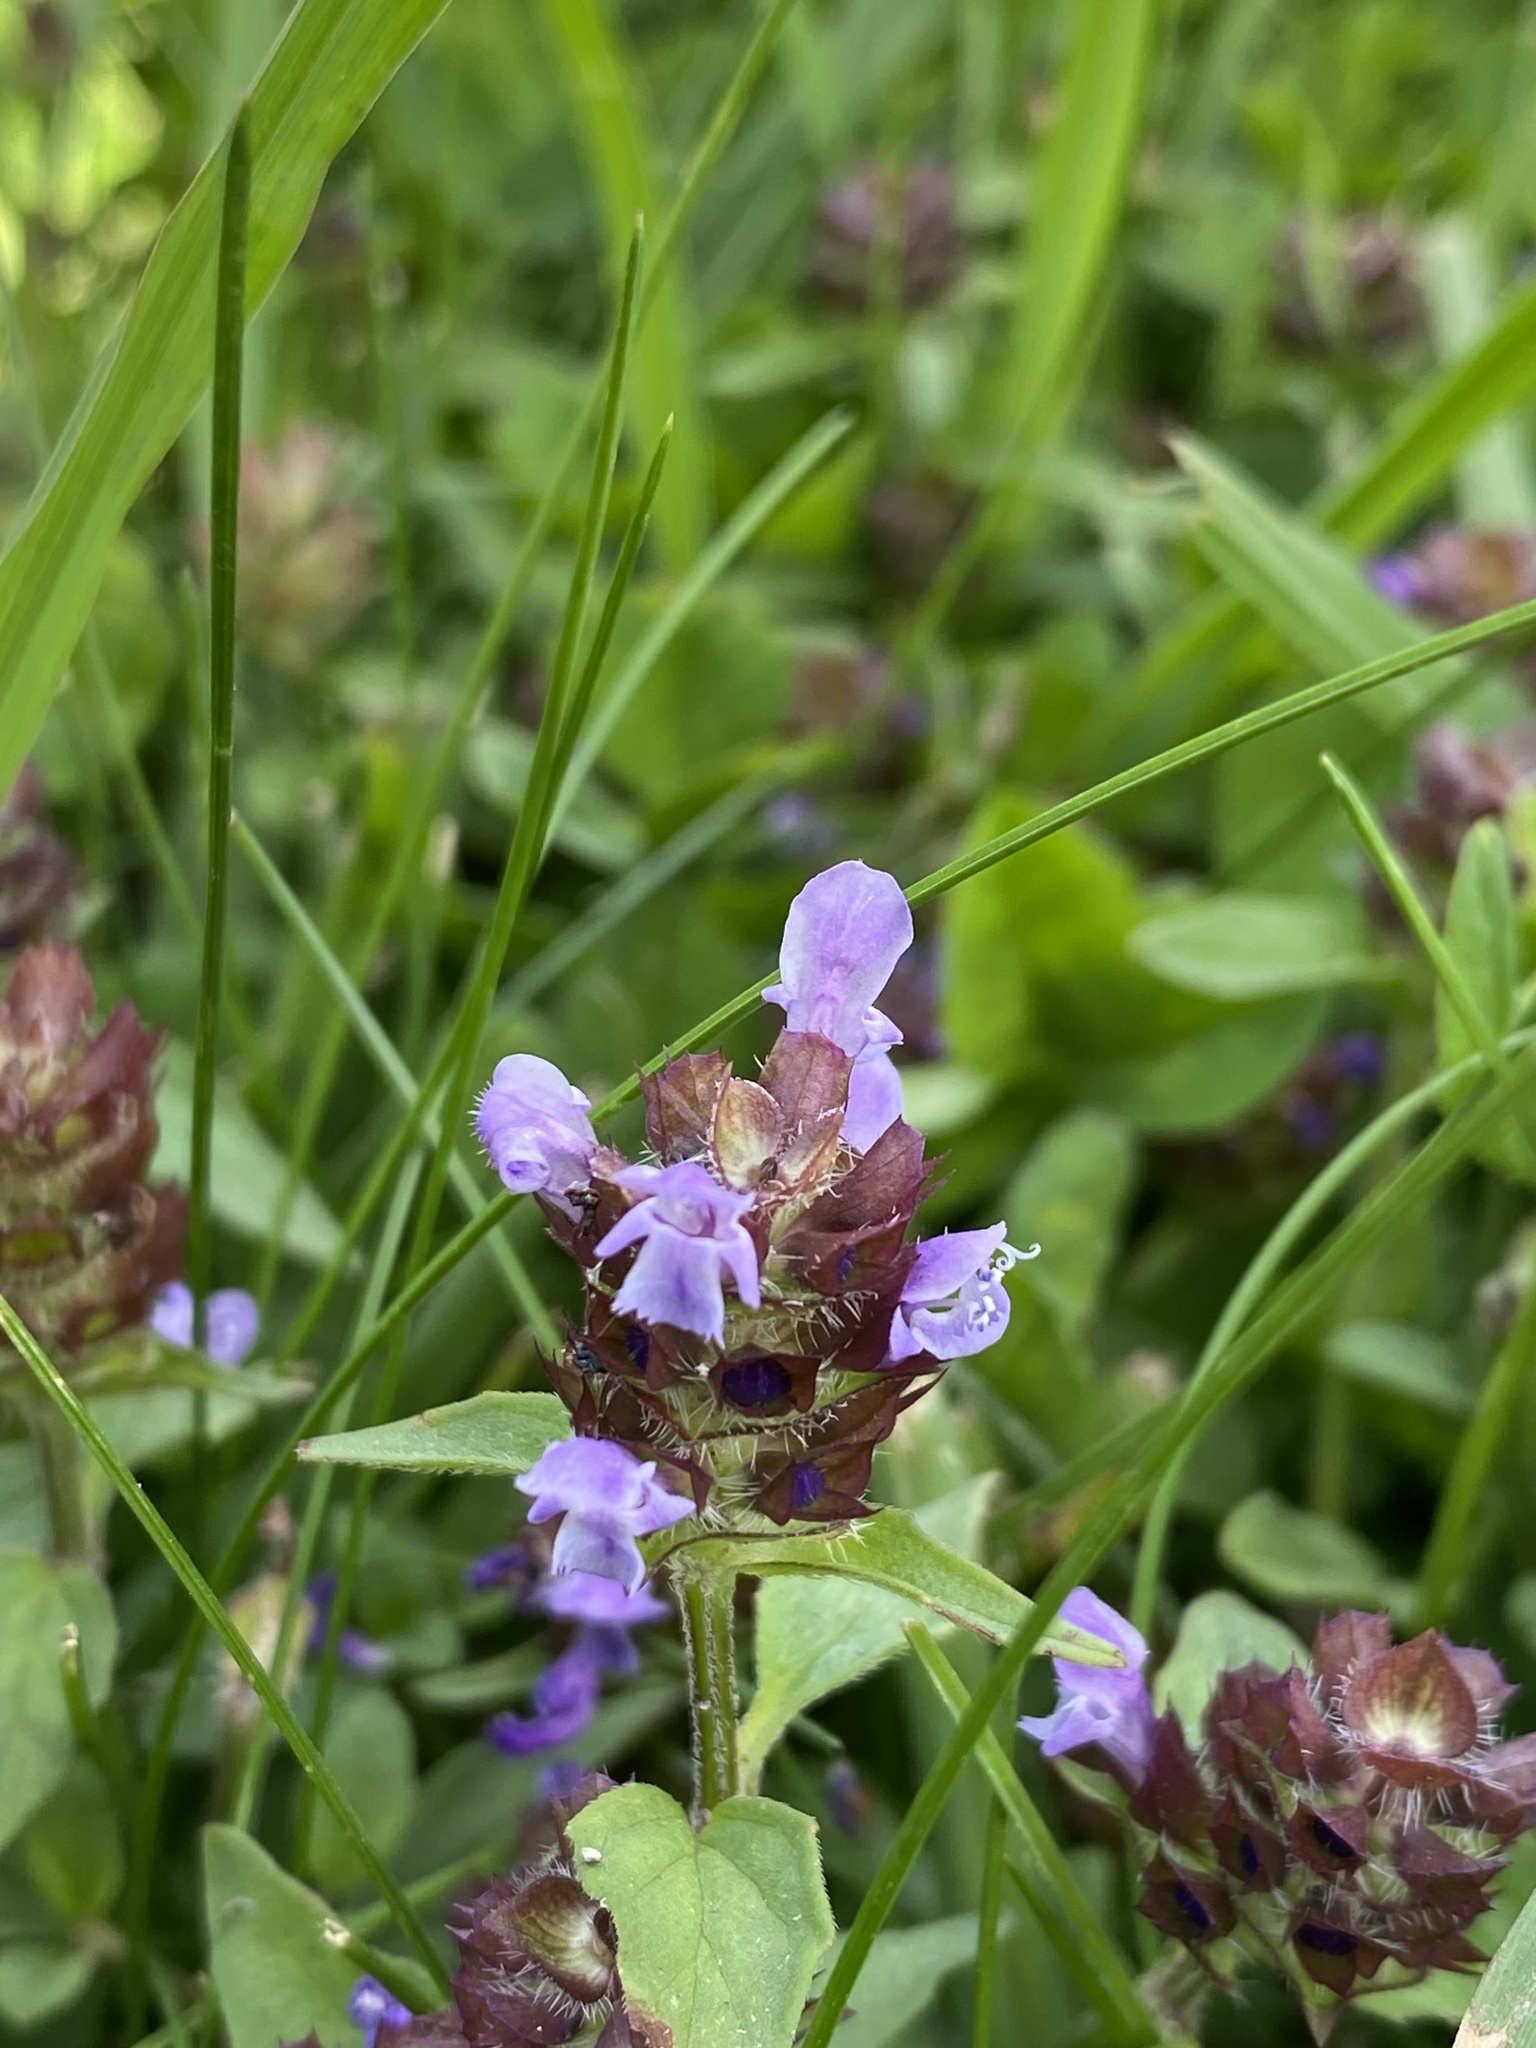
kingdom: Plantae
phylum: Tracheophyta
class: Magnoliopsida
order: Lamiales
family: Lamiaceae
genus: Prunella
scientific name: Prunella vulgaris
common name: Heal-all
